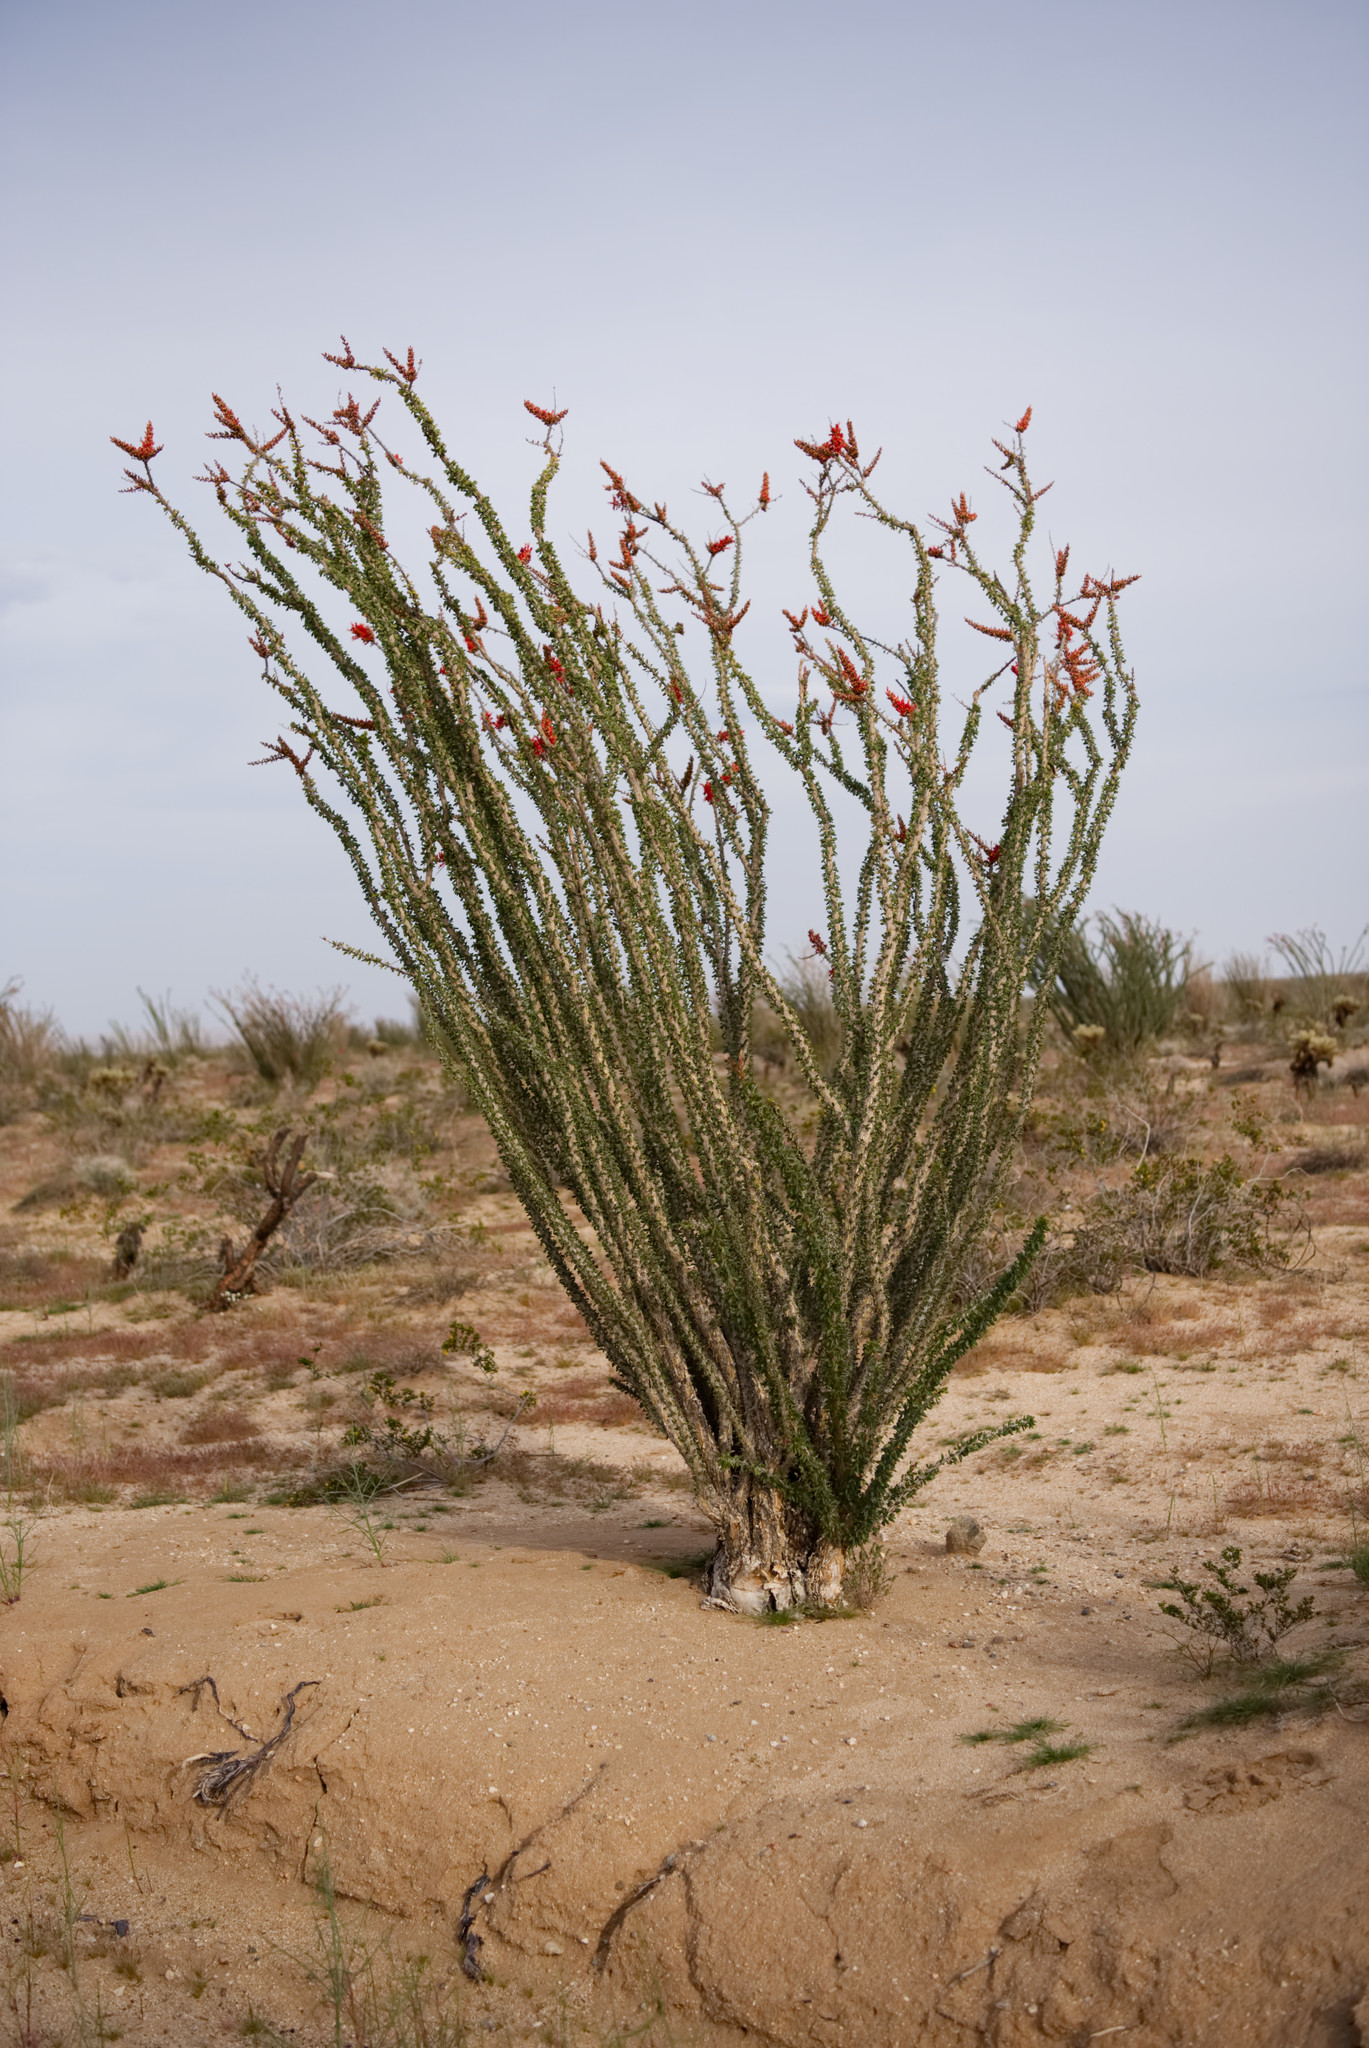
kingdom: Plantae
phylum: Tracheophyta
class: Magnoliopsida
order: Ericales
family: Fouquieriaceae
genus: Fouquieria
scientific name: Fouquieria splendens
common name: Vine-cactus
